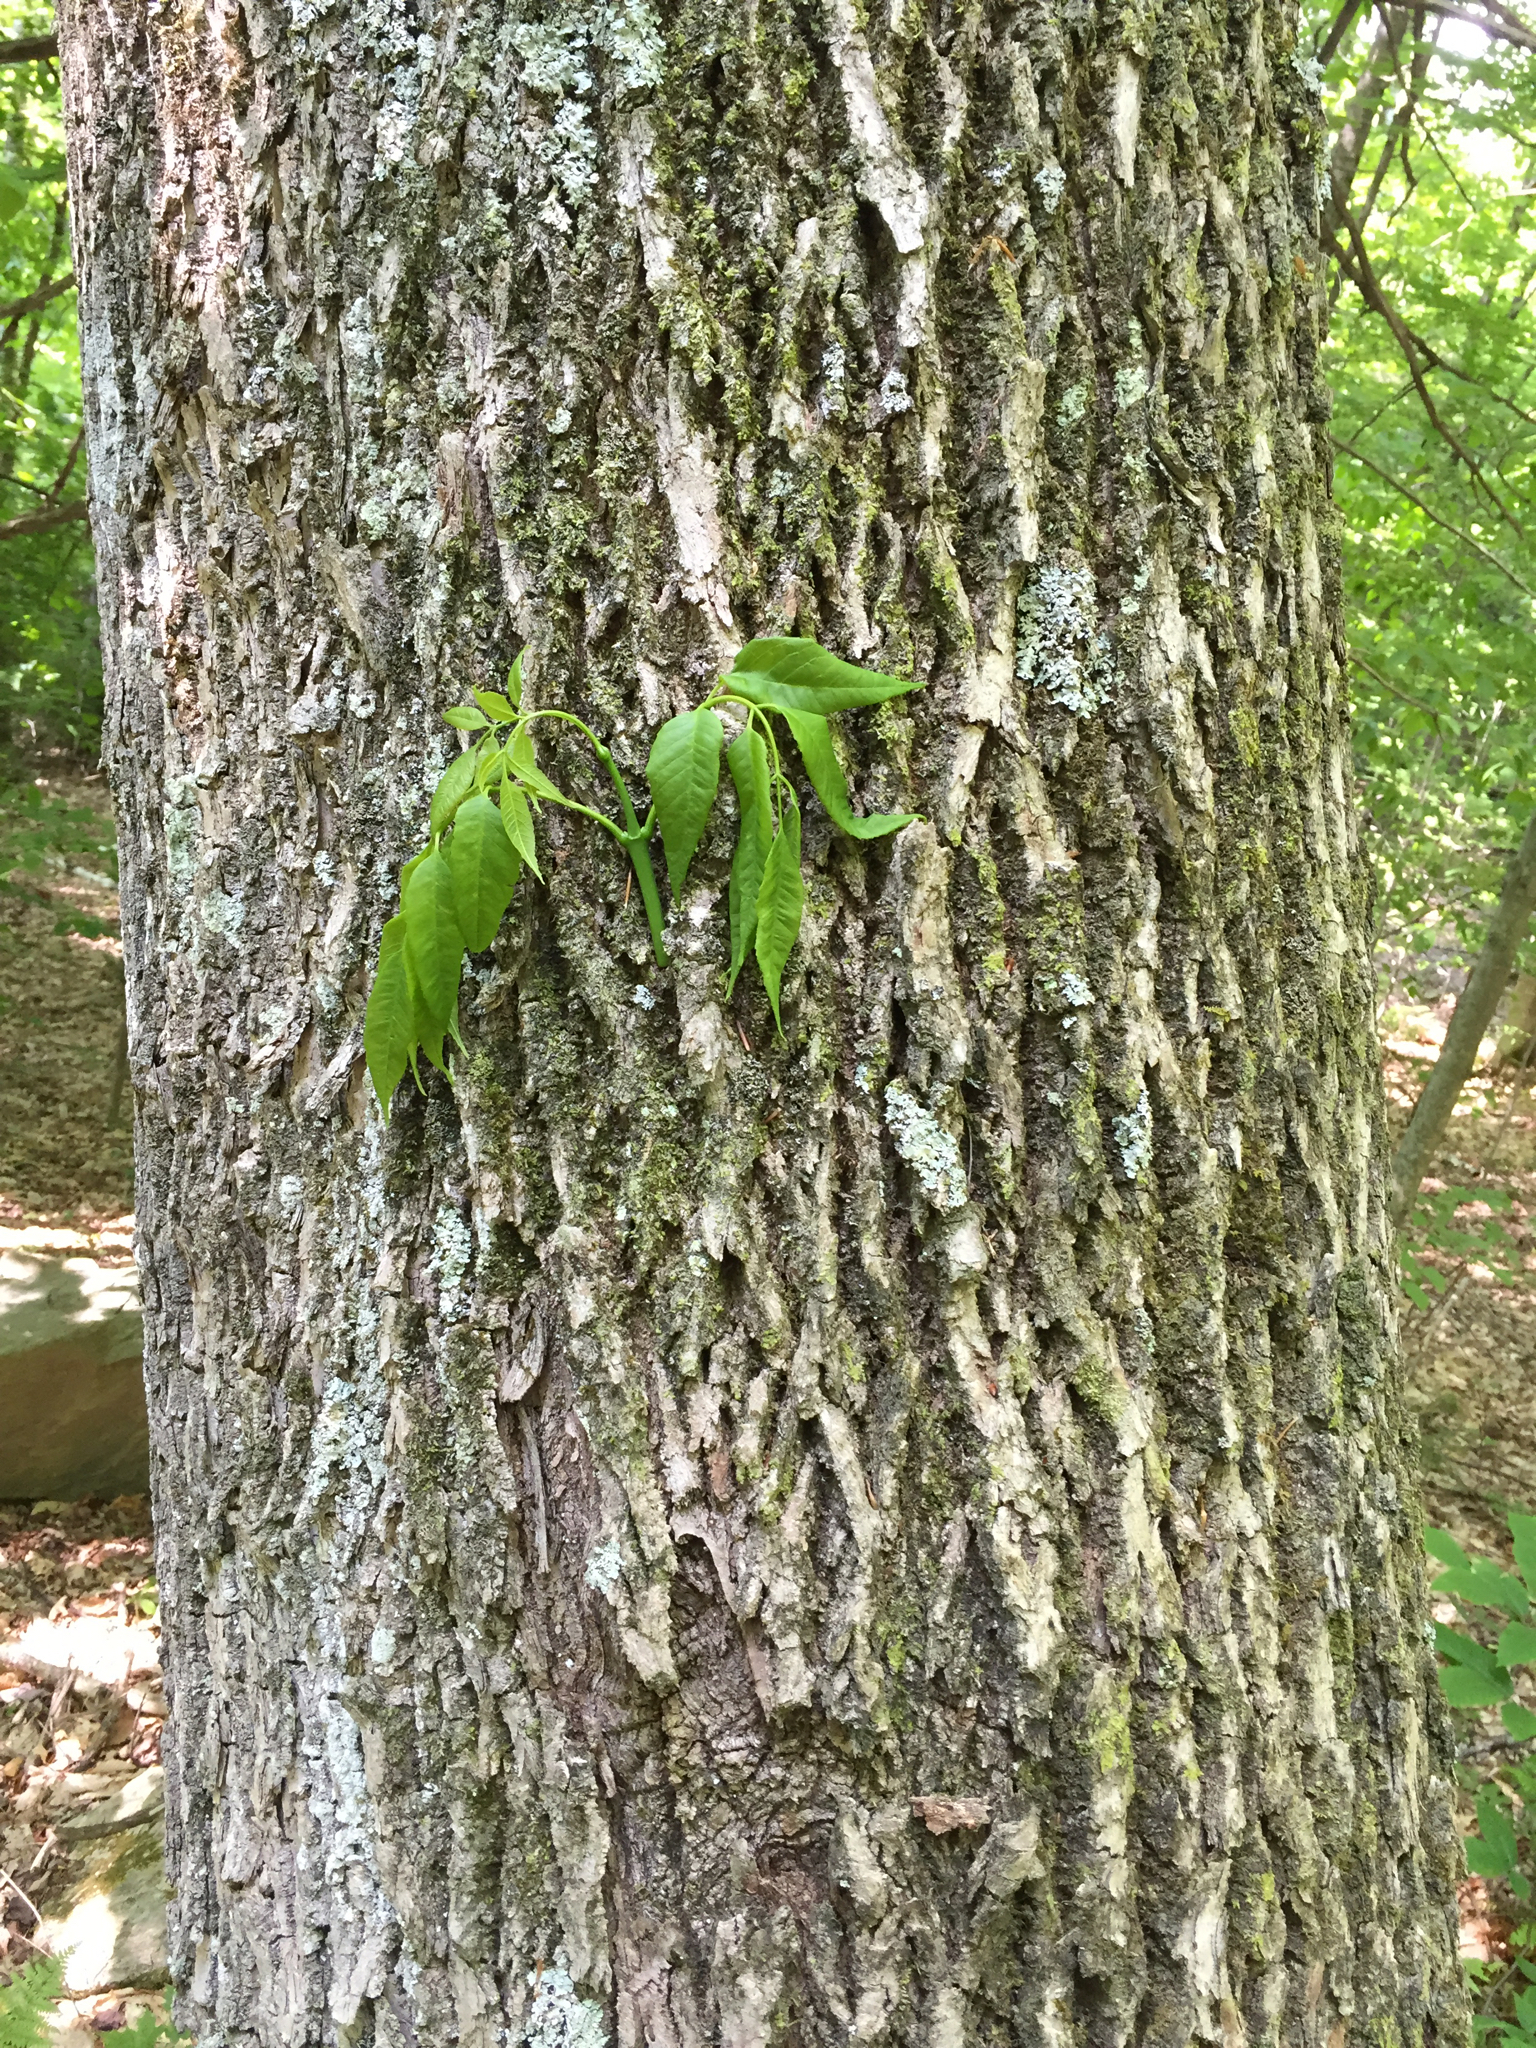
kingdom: Plantae
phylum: Tracheophyta
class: Magnoliopsida
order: Lamiales
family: Oleaceae
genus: Fraxinus
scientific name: Fraxinus americana
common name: White ash
